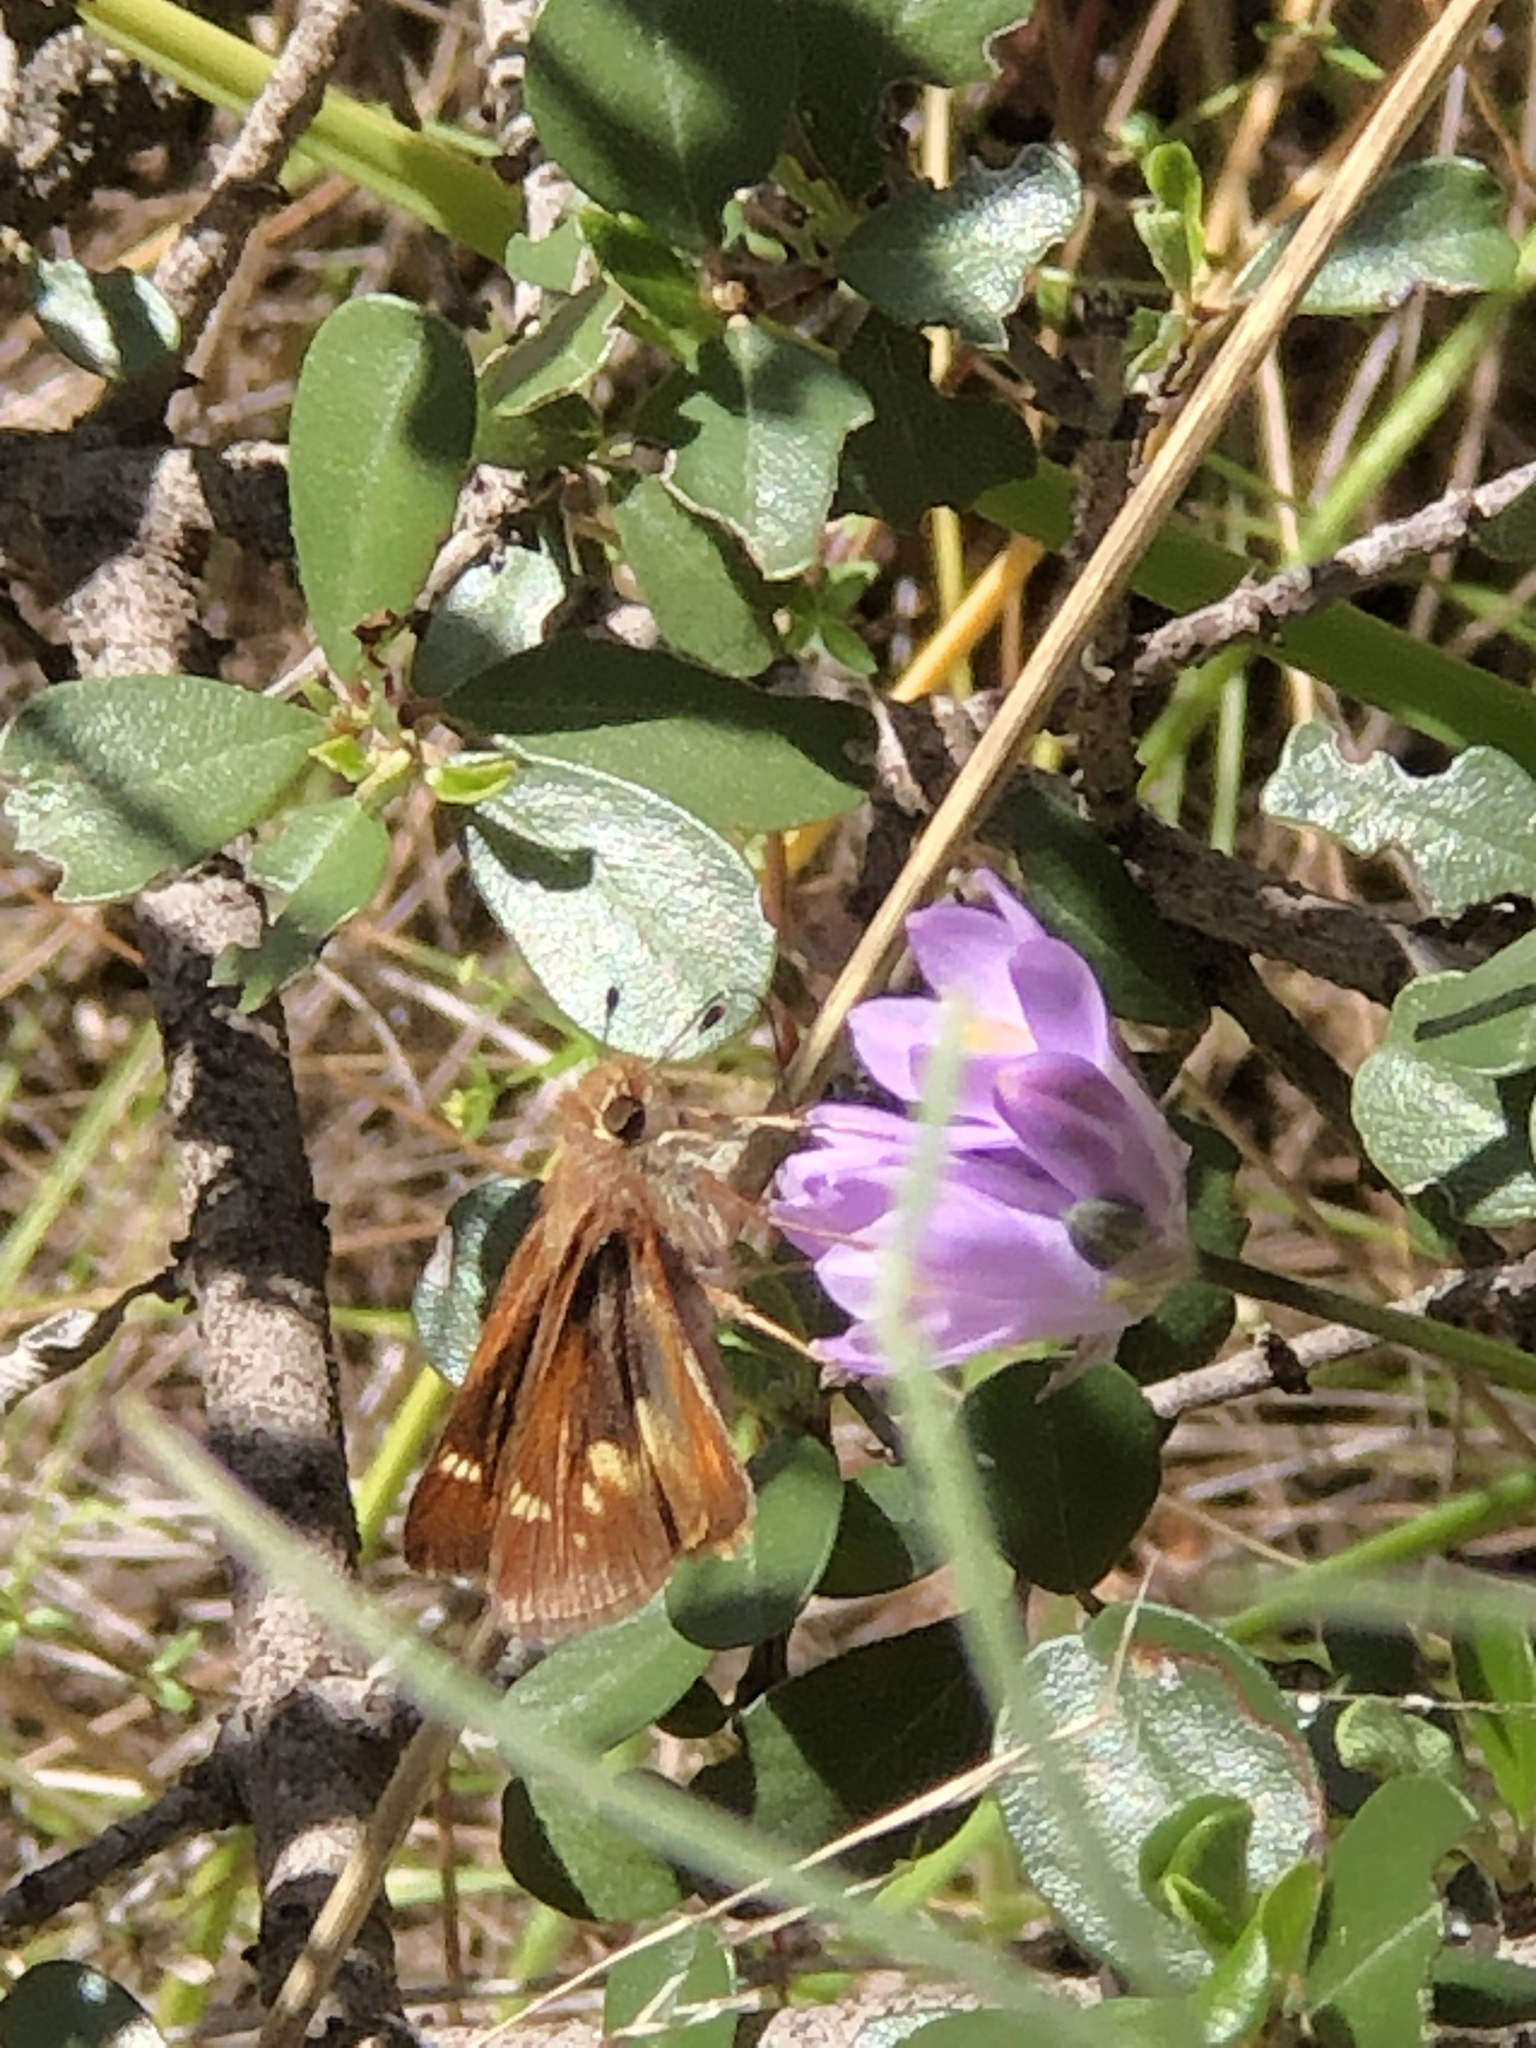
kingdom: Animalia
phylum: Arthropoda
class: Insecta
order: Lepidoptera
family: Hesperiidae
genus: Lon
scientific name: Lon melane
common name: Umber skipper
